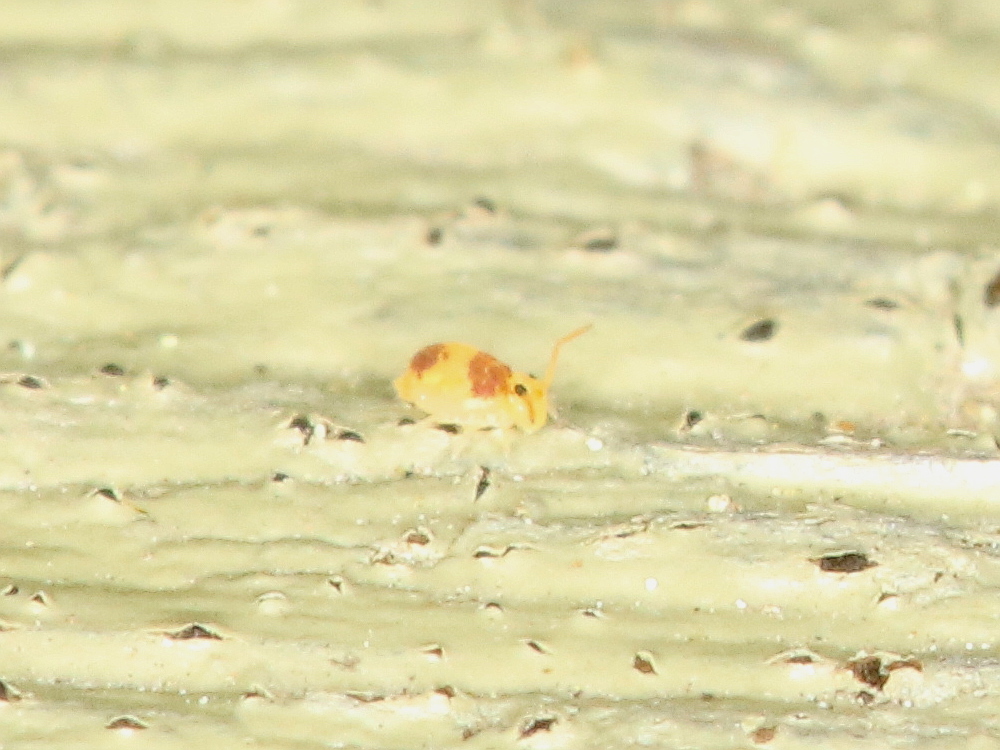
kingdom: Animalia
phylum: Arthropoda
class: Collembola
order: Symphypleona
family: Bourletiellidae
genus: Deuterosminthurus
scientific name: Deuterosminthurus bicinctus
